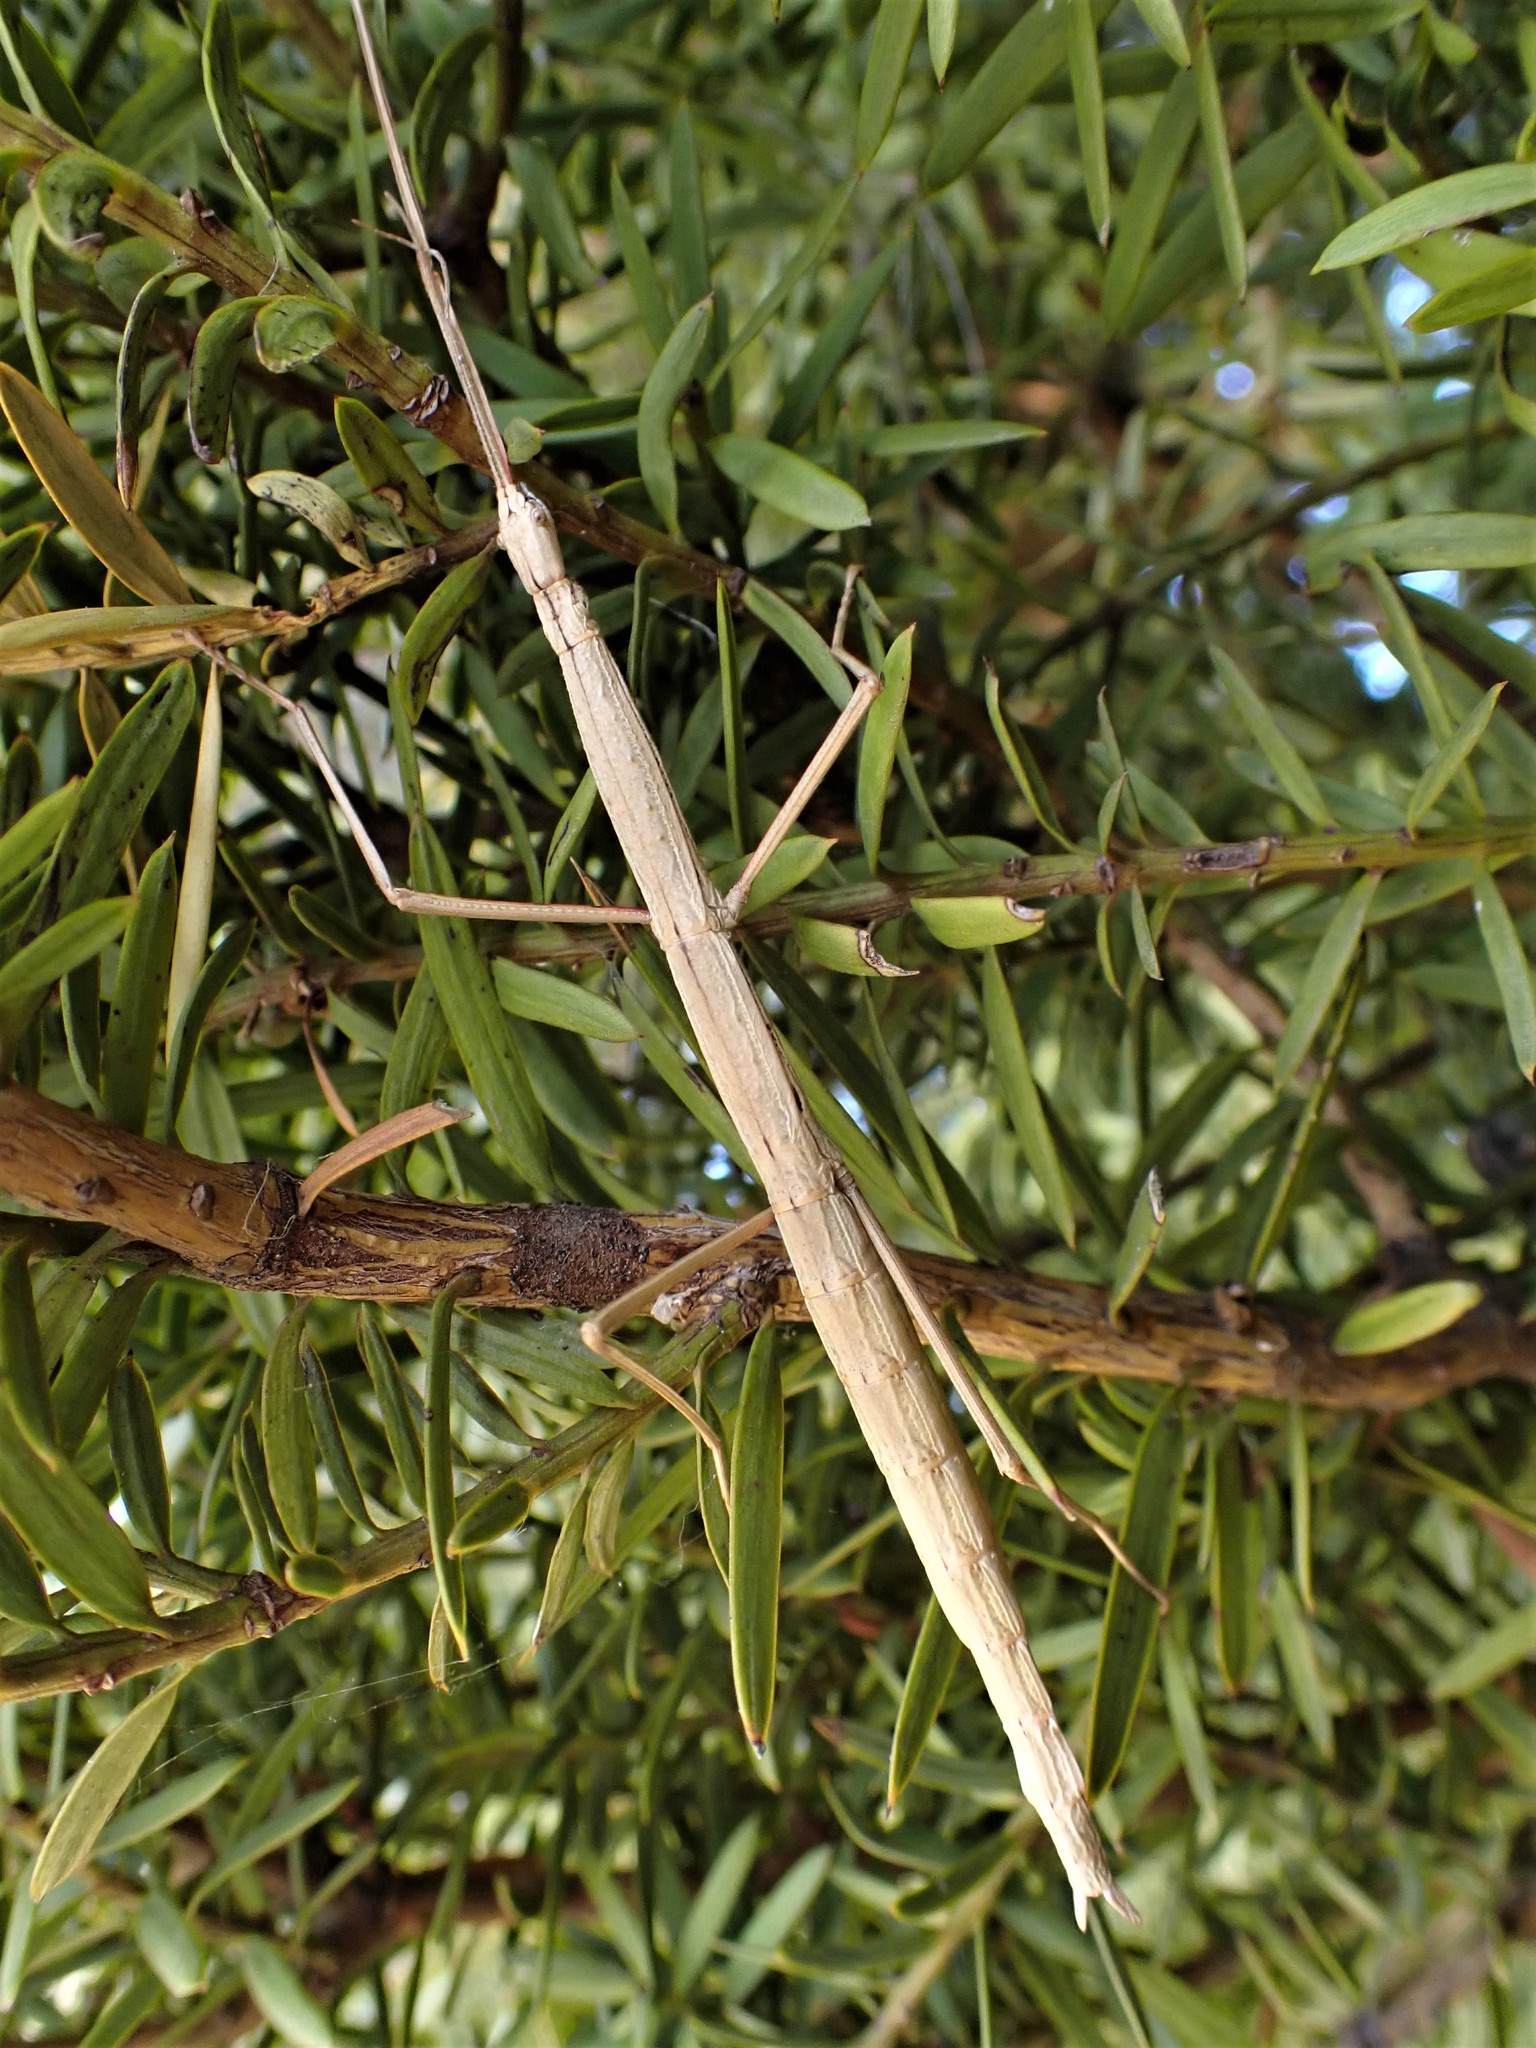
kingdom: Animalia
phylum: Arthropoda
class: Insecta
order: Phasmida
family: Phasmatidae
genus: Clitarchus
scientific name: Clitarchus hookeri
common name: Smooth stick insect
